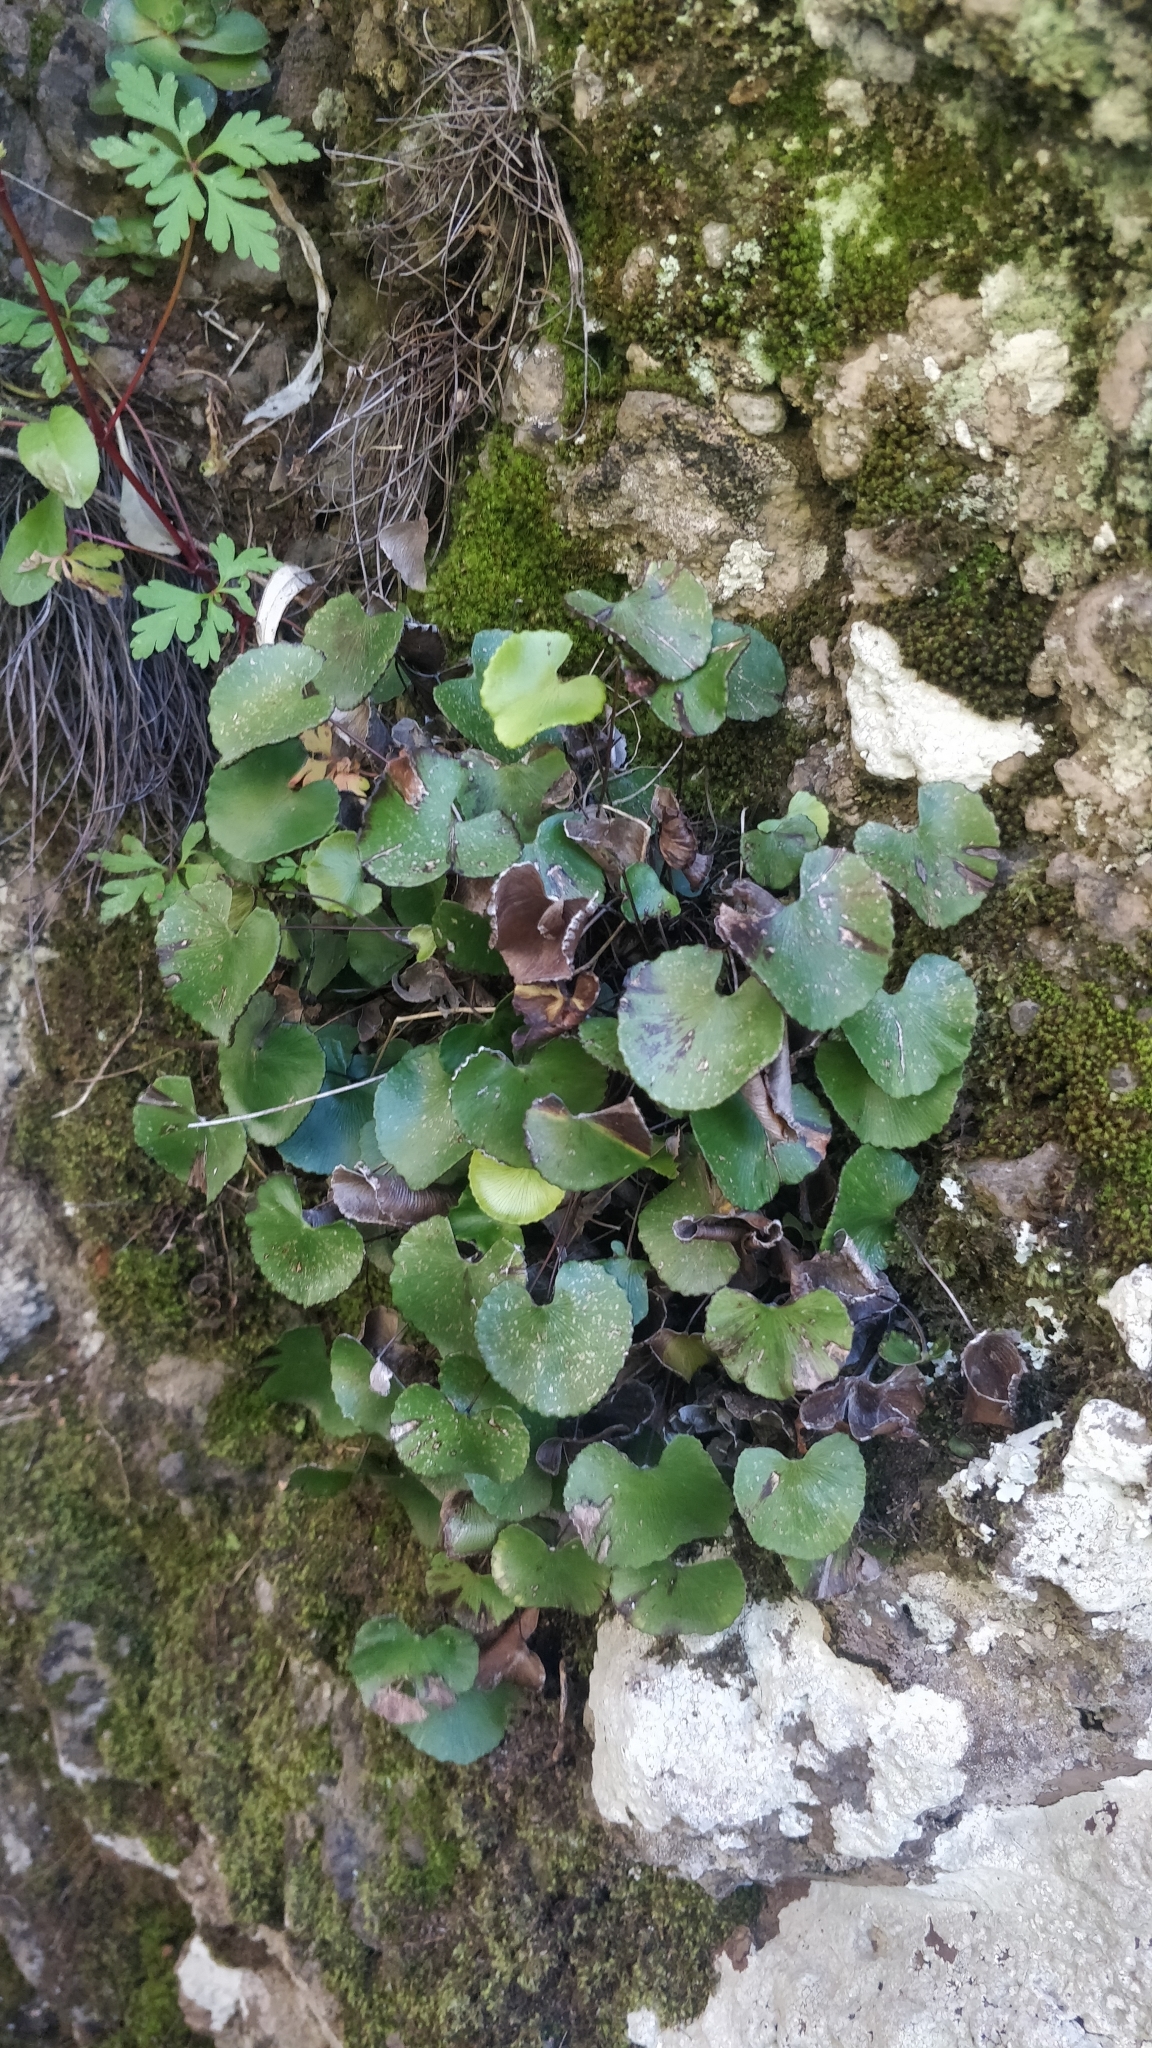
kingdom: Plantae
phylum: Tracheophyta
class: Polypodiopsida
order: Polypodiales
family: Pteridaceae
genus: Adiantum
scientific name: Adiantum reniforme
